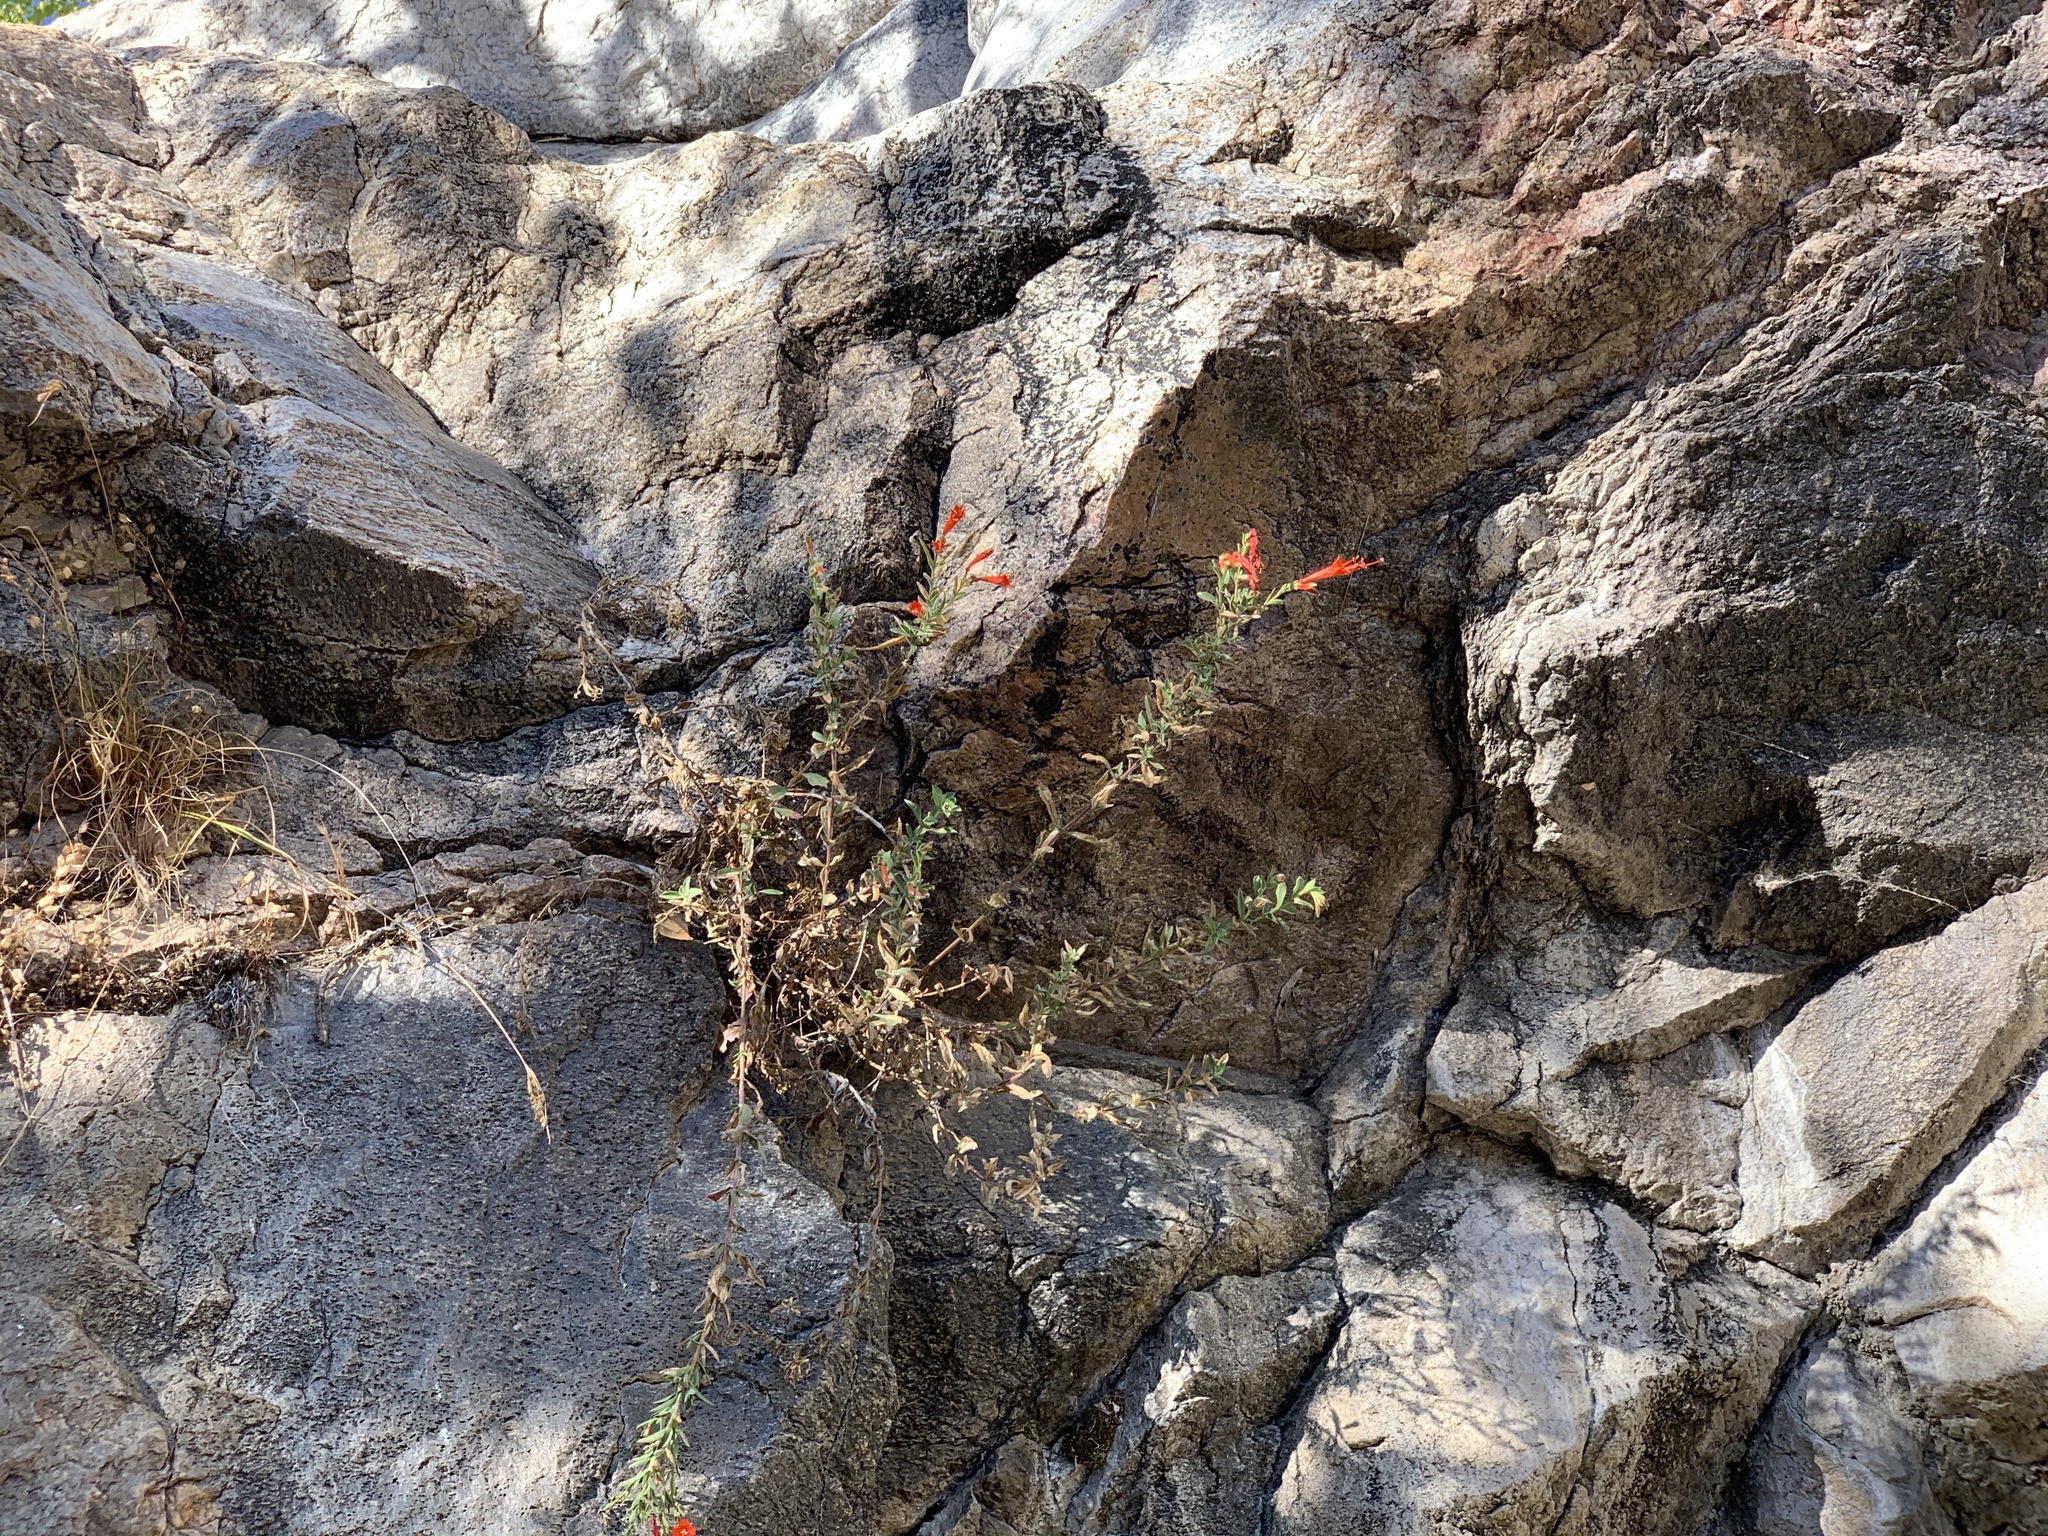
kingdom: Plantae
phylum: Tracheophyta
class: Magnoliopsida
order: Myrtales
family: Onagraceae
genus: Epilobium
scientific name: Epilobium canum
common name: California-fuchsia
